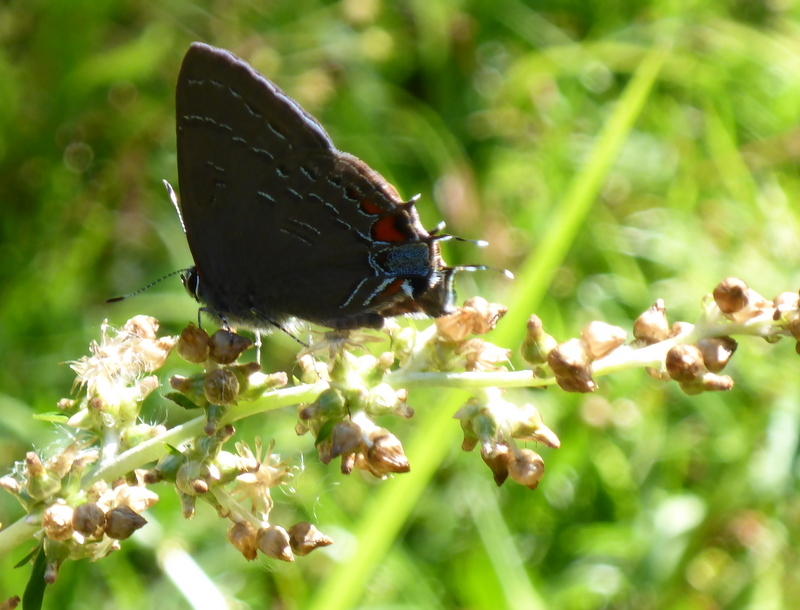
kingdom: Animalia
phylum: Arthropoda
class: Insecta
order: Lepidoptera
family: Lycaenidae
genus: Satyrium
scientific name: Satyrium calanus
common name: Banded hairstreak
